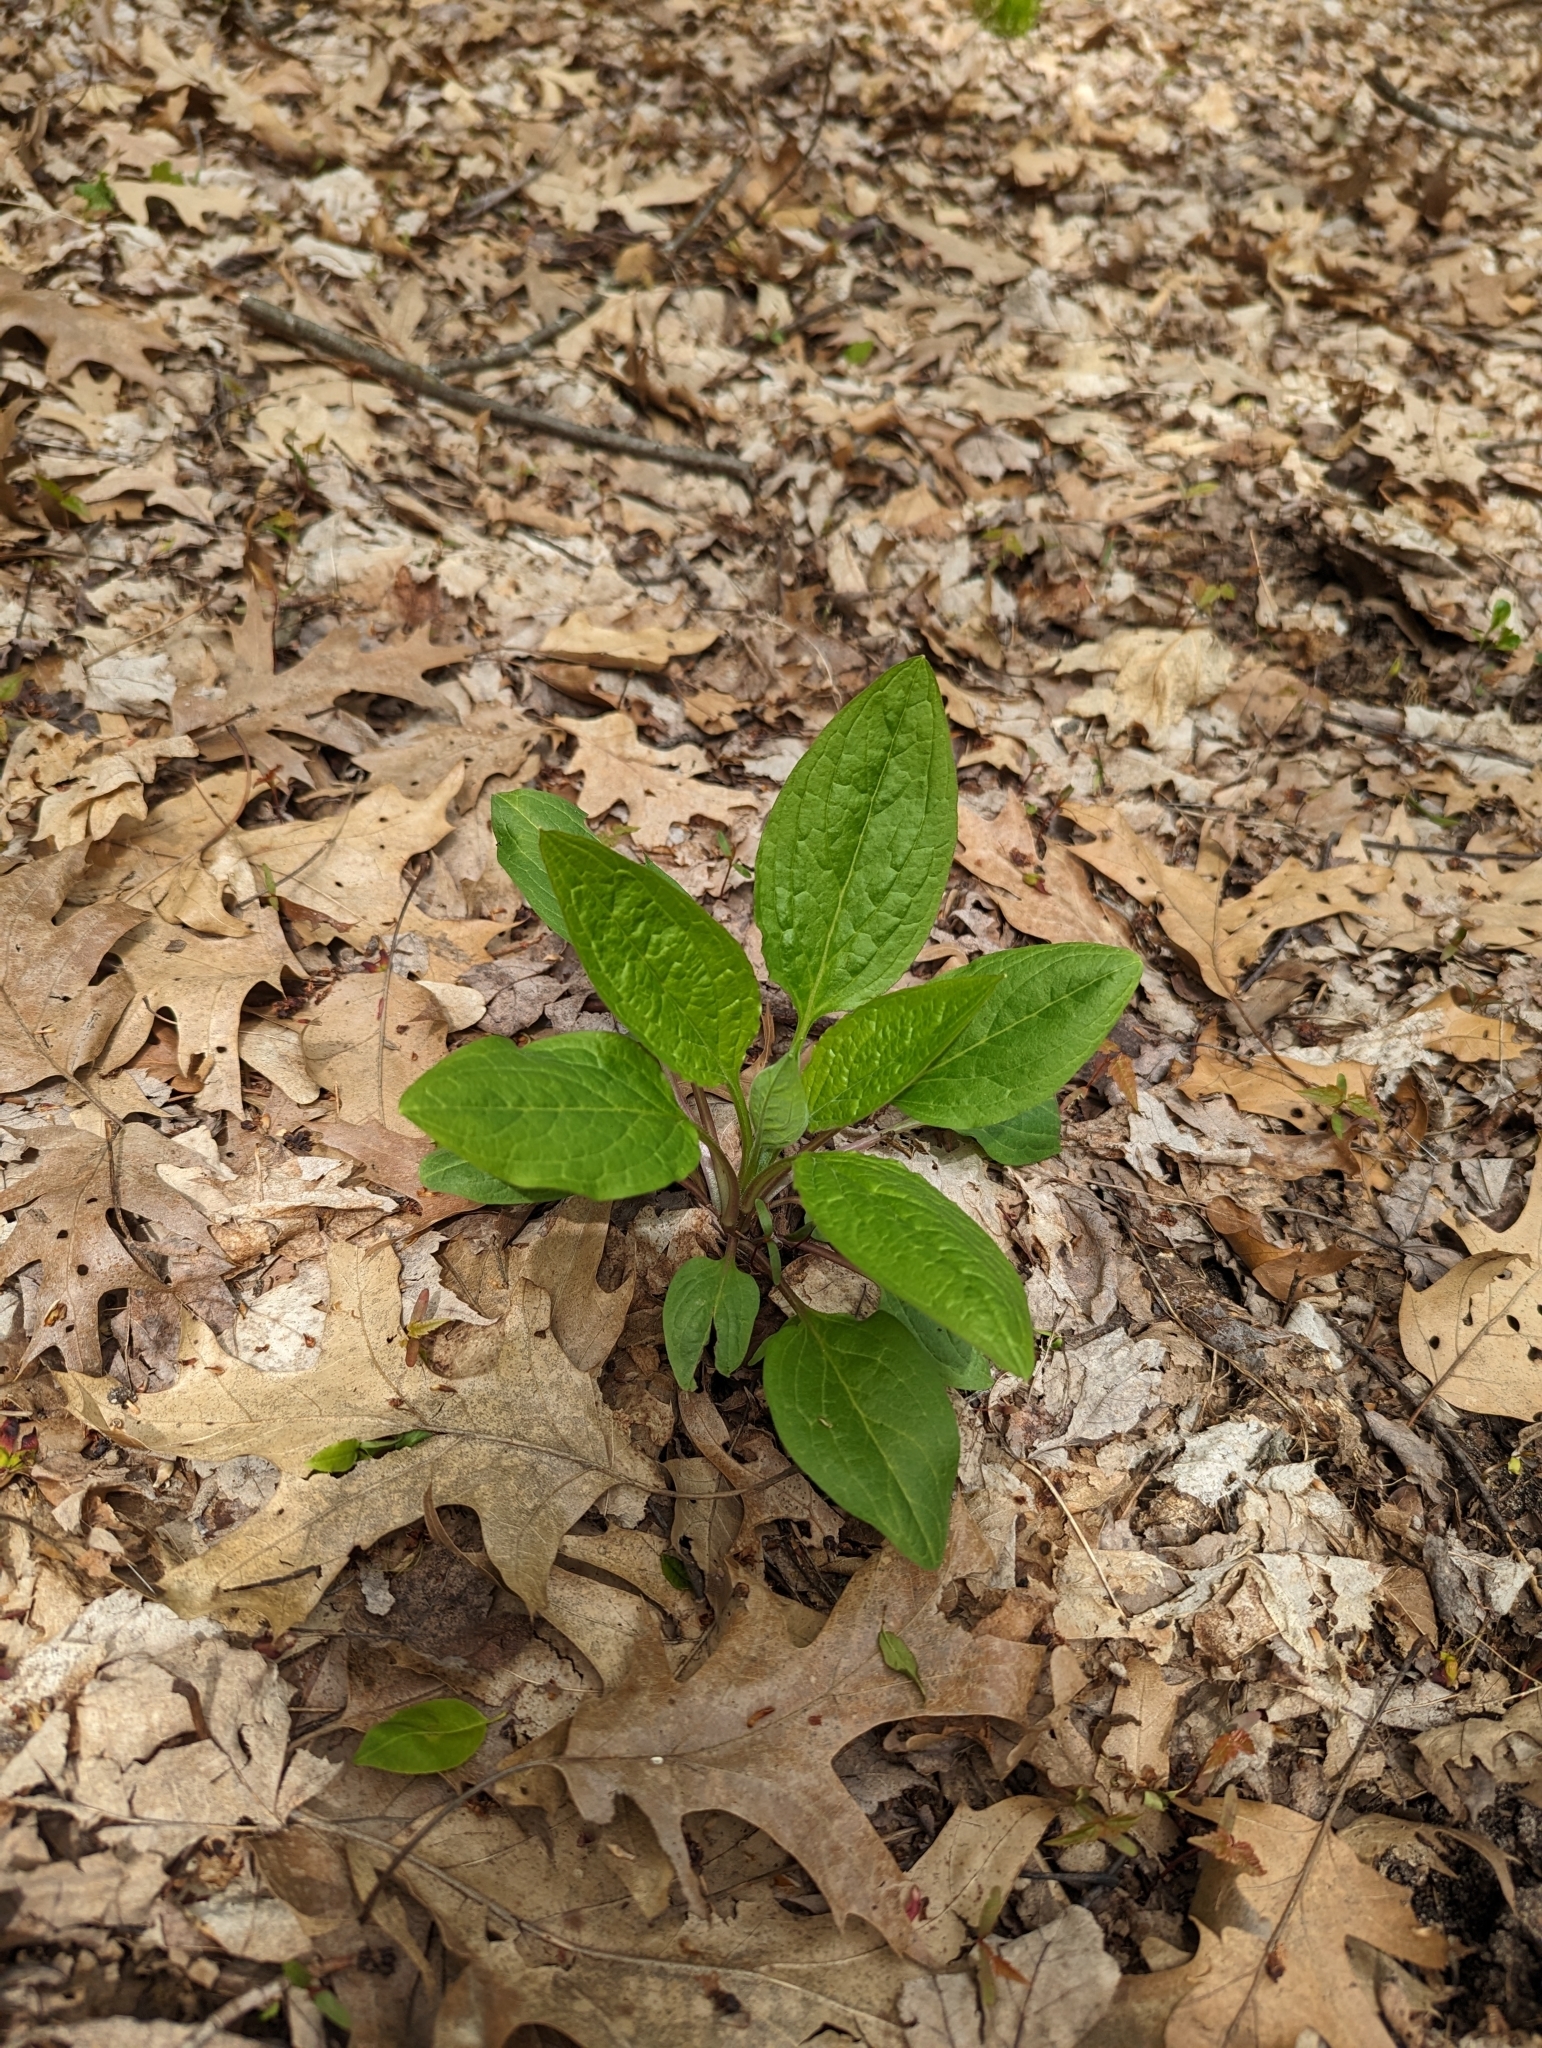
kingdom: Plantae
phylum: Tracheophyta
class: Magnoliopsida
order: Boraginales
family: Boraginaceae
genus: Hackelia
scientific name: Hackelia virginiana
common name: Beggar's-lice
